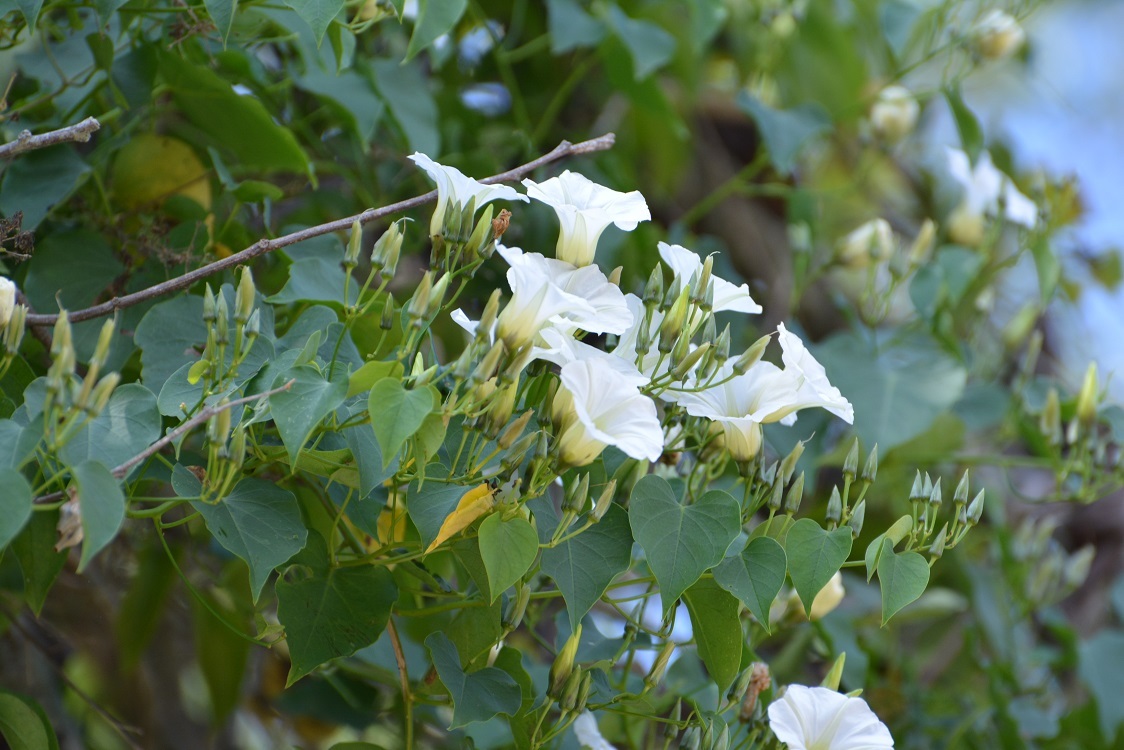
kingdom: Plantae
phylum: Tracheophyta
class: Magnoliopsida
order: Solanales
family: Convolvulaceae
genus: Ipomoea
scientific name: Ipomoea corymbosa
